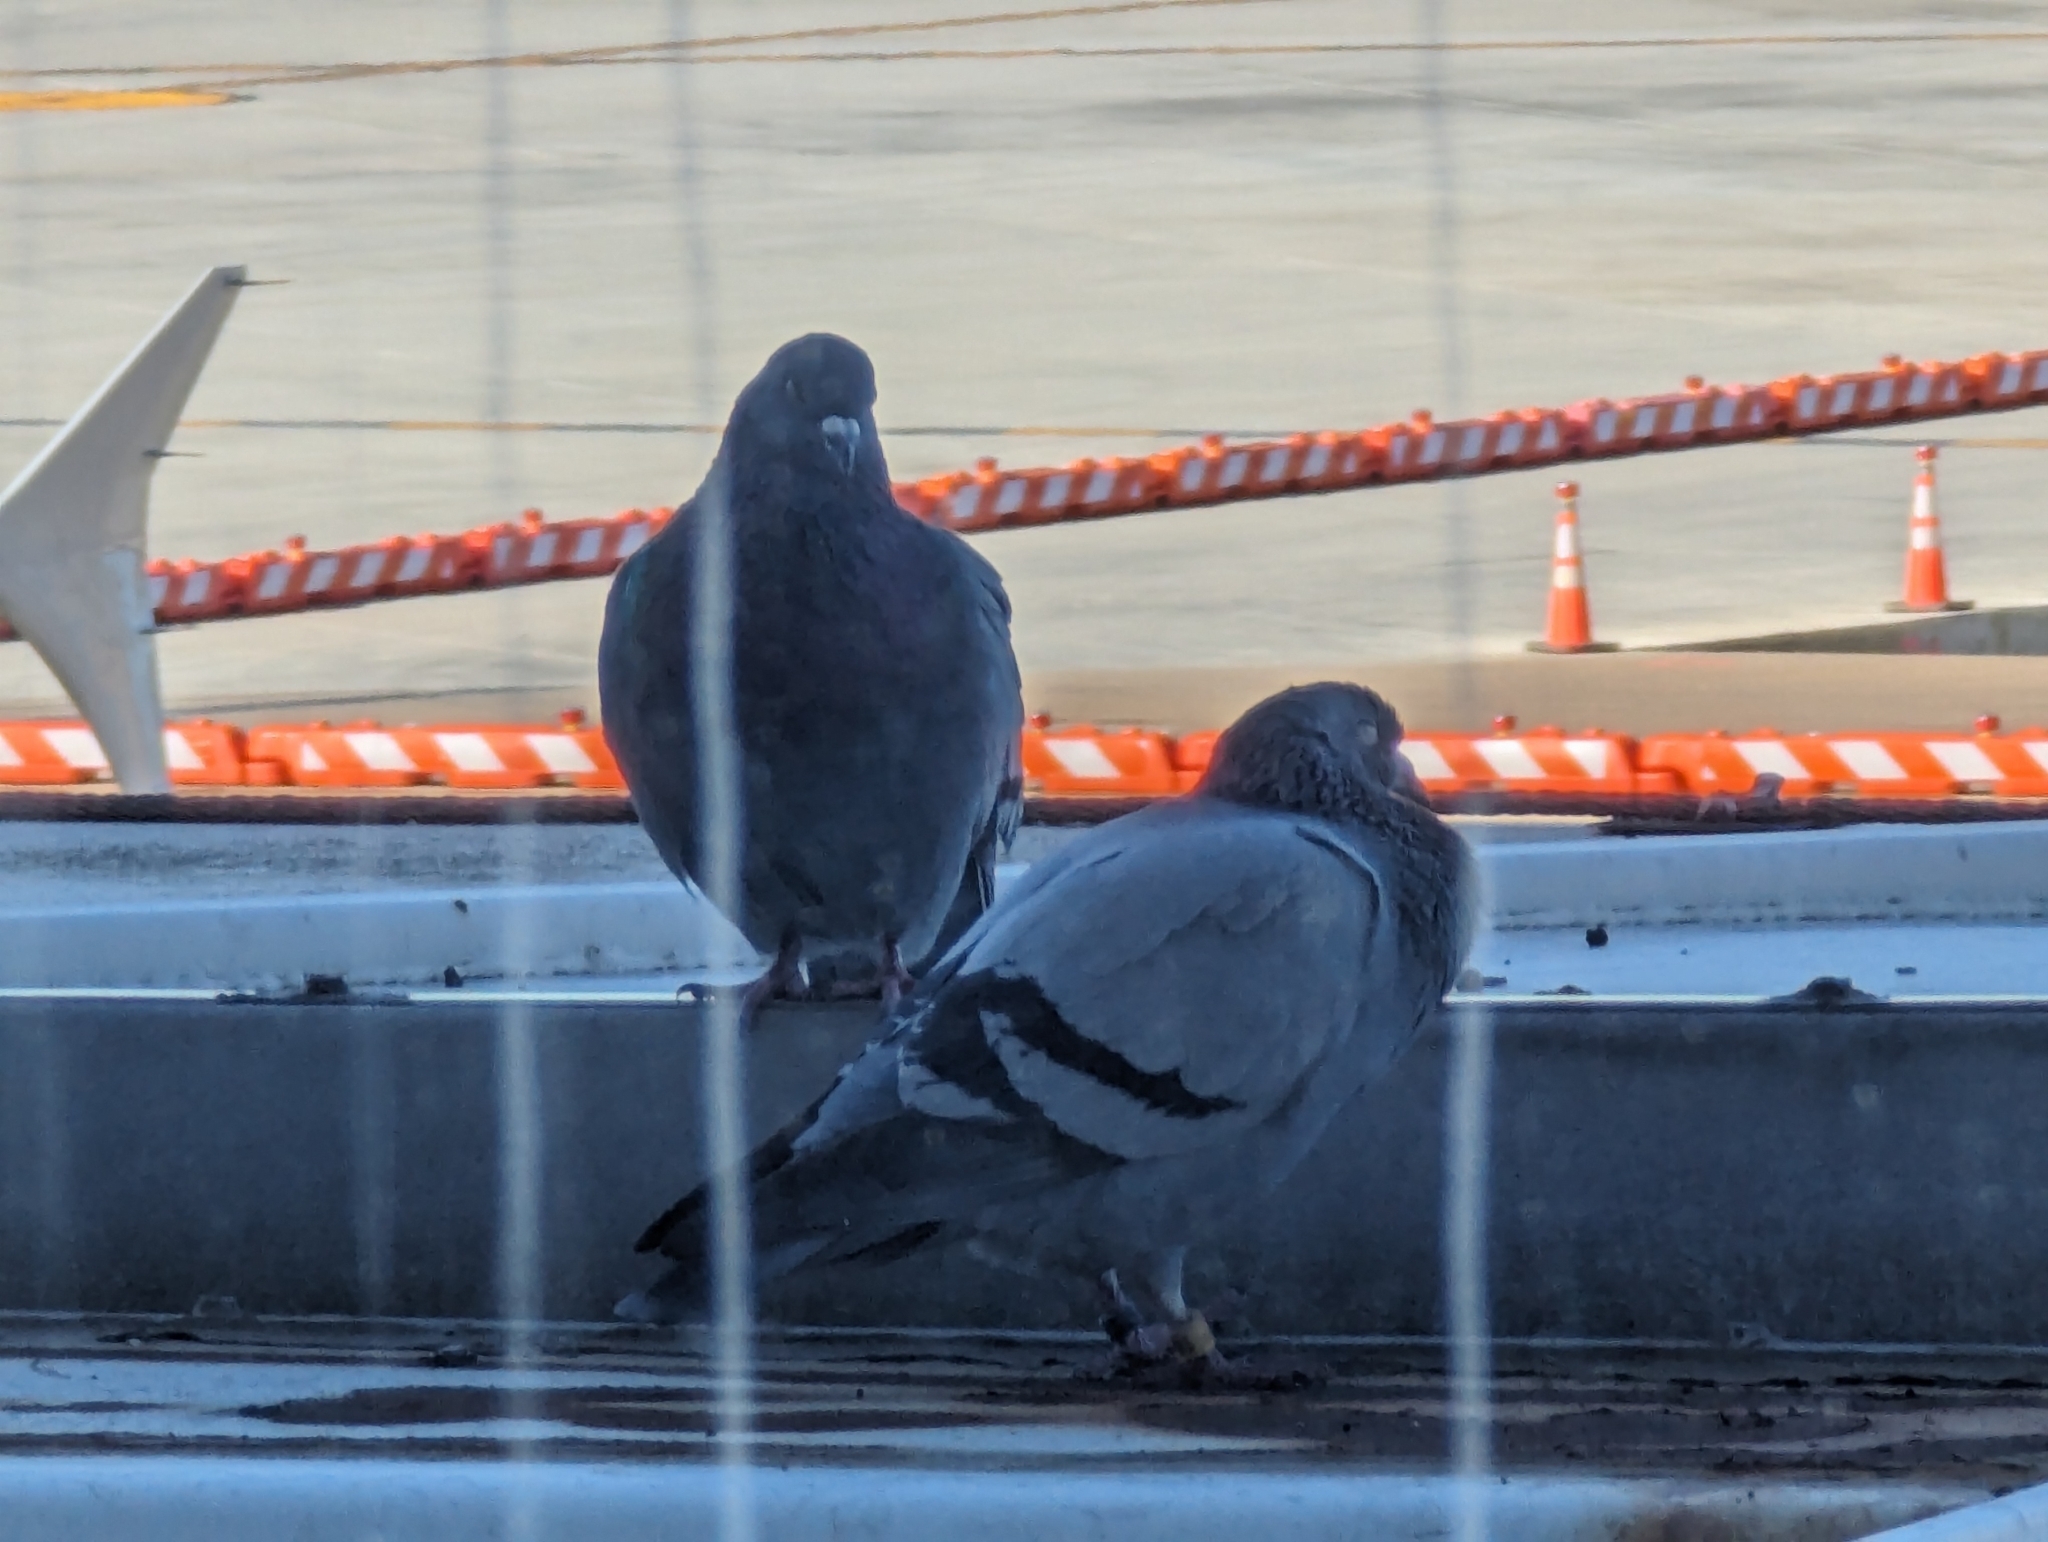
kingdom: Animalia
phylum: Chordata
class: Aves
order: Columbiformes
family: Columbidae
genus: Columba
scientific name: Columba livia
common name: Rock pigeon
